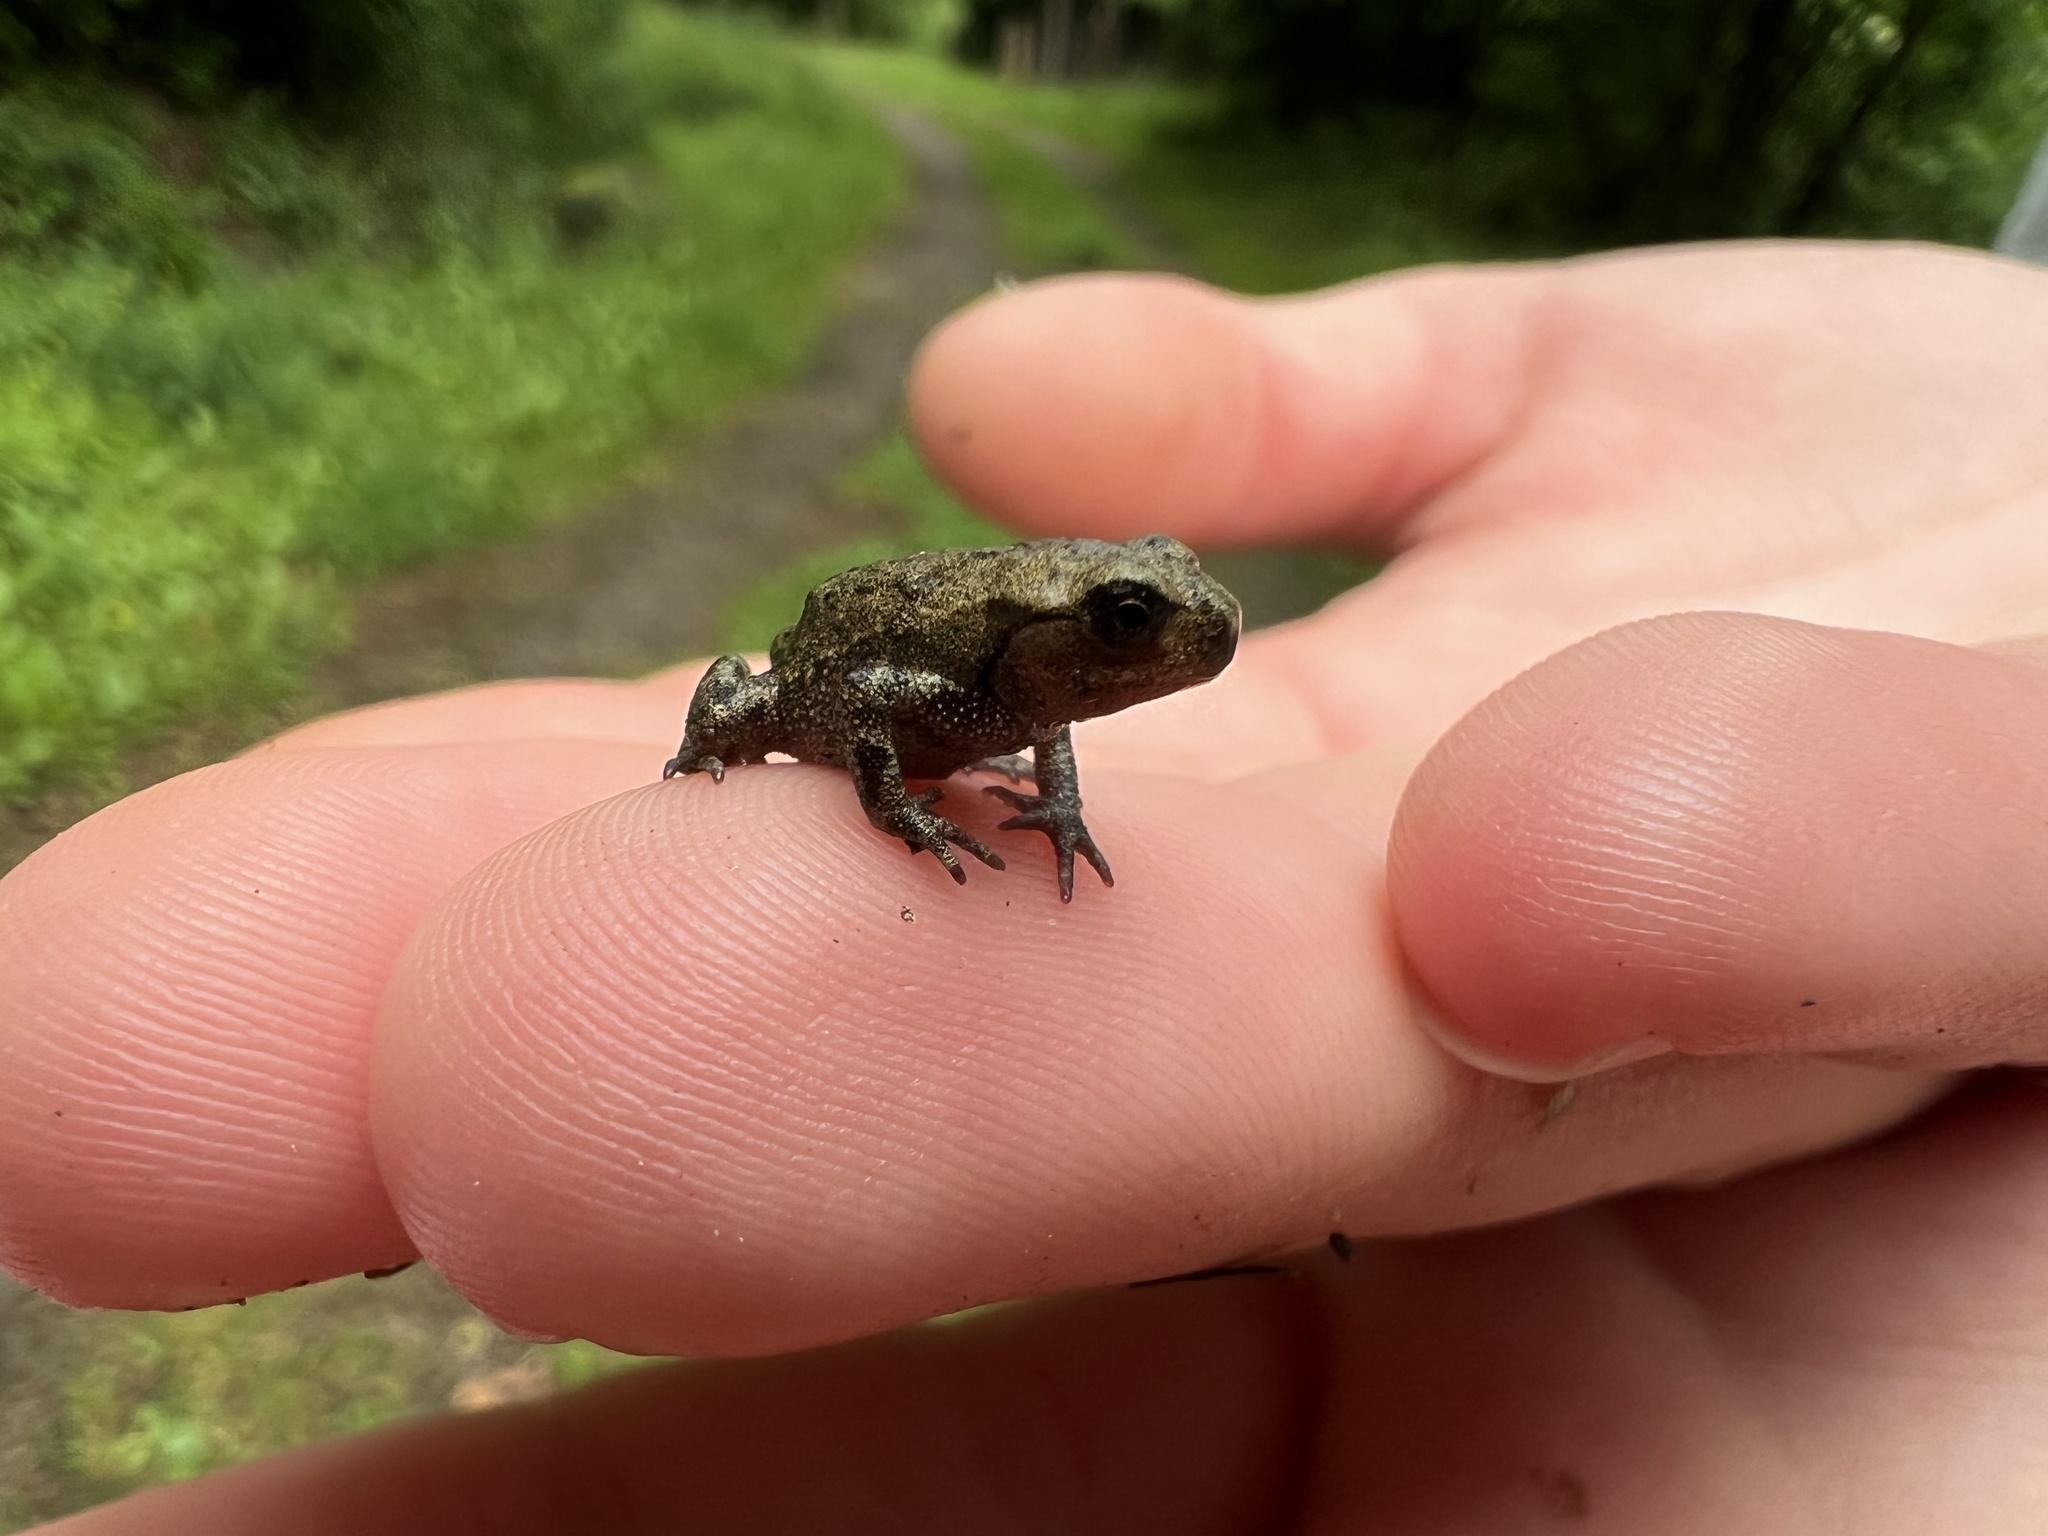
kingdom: Animalia
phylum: Chordata
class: Amphibia
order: Anura
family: Bufonidae
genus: Bufo
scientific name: Bufo bufo
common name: Common toad
